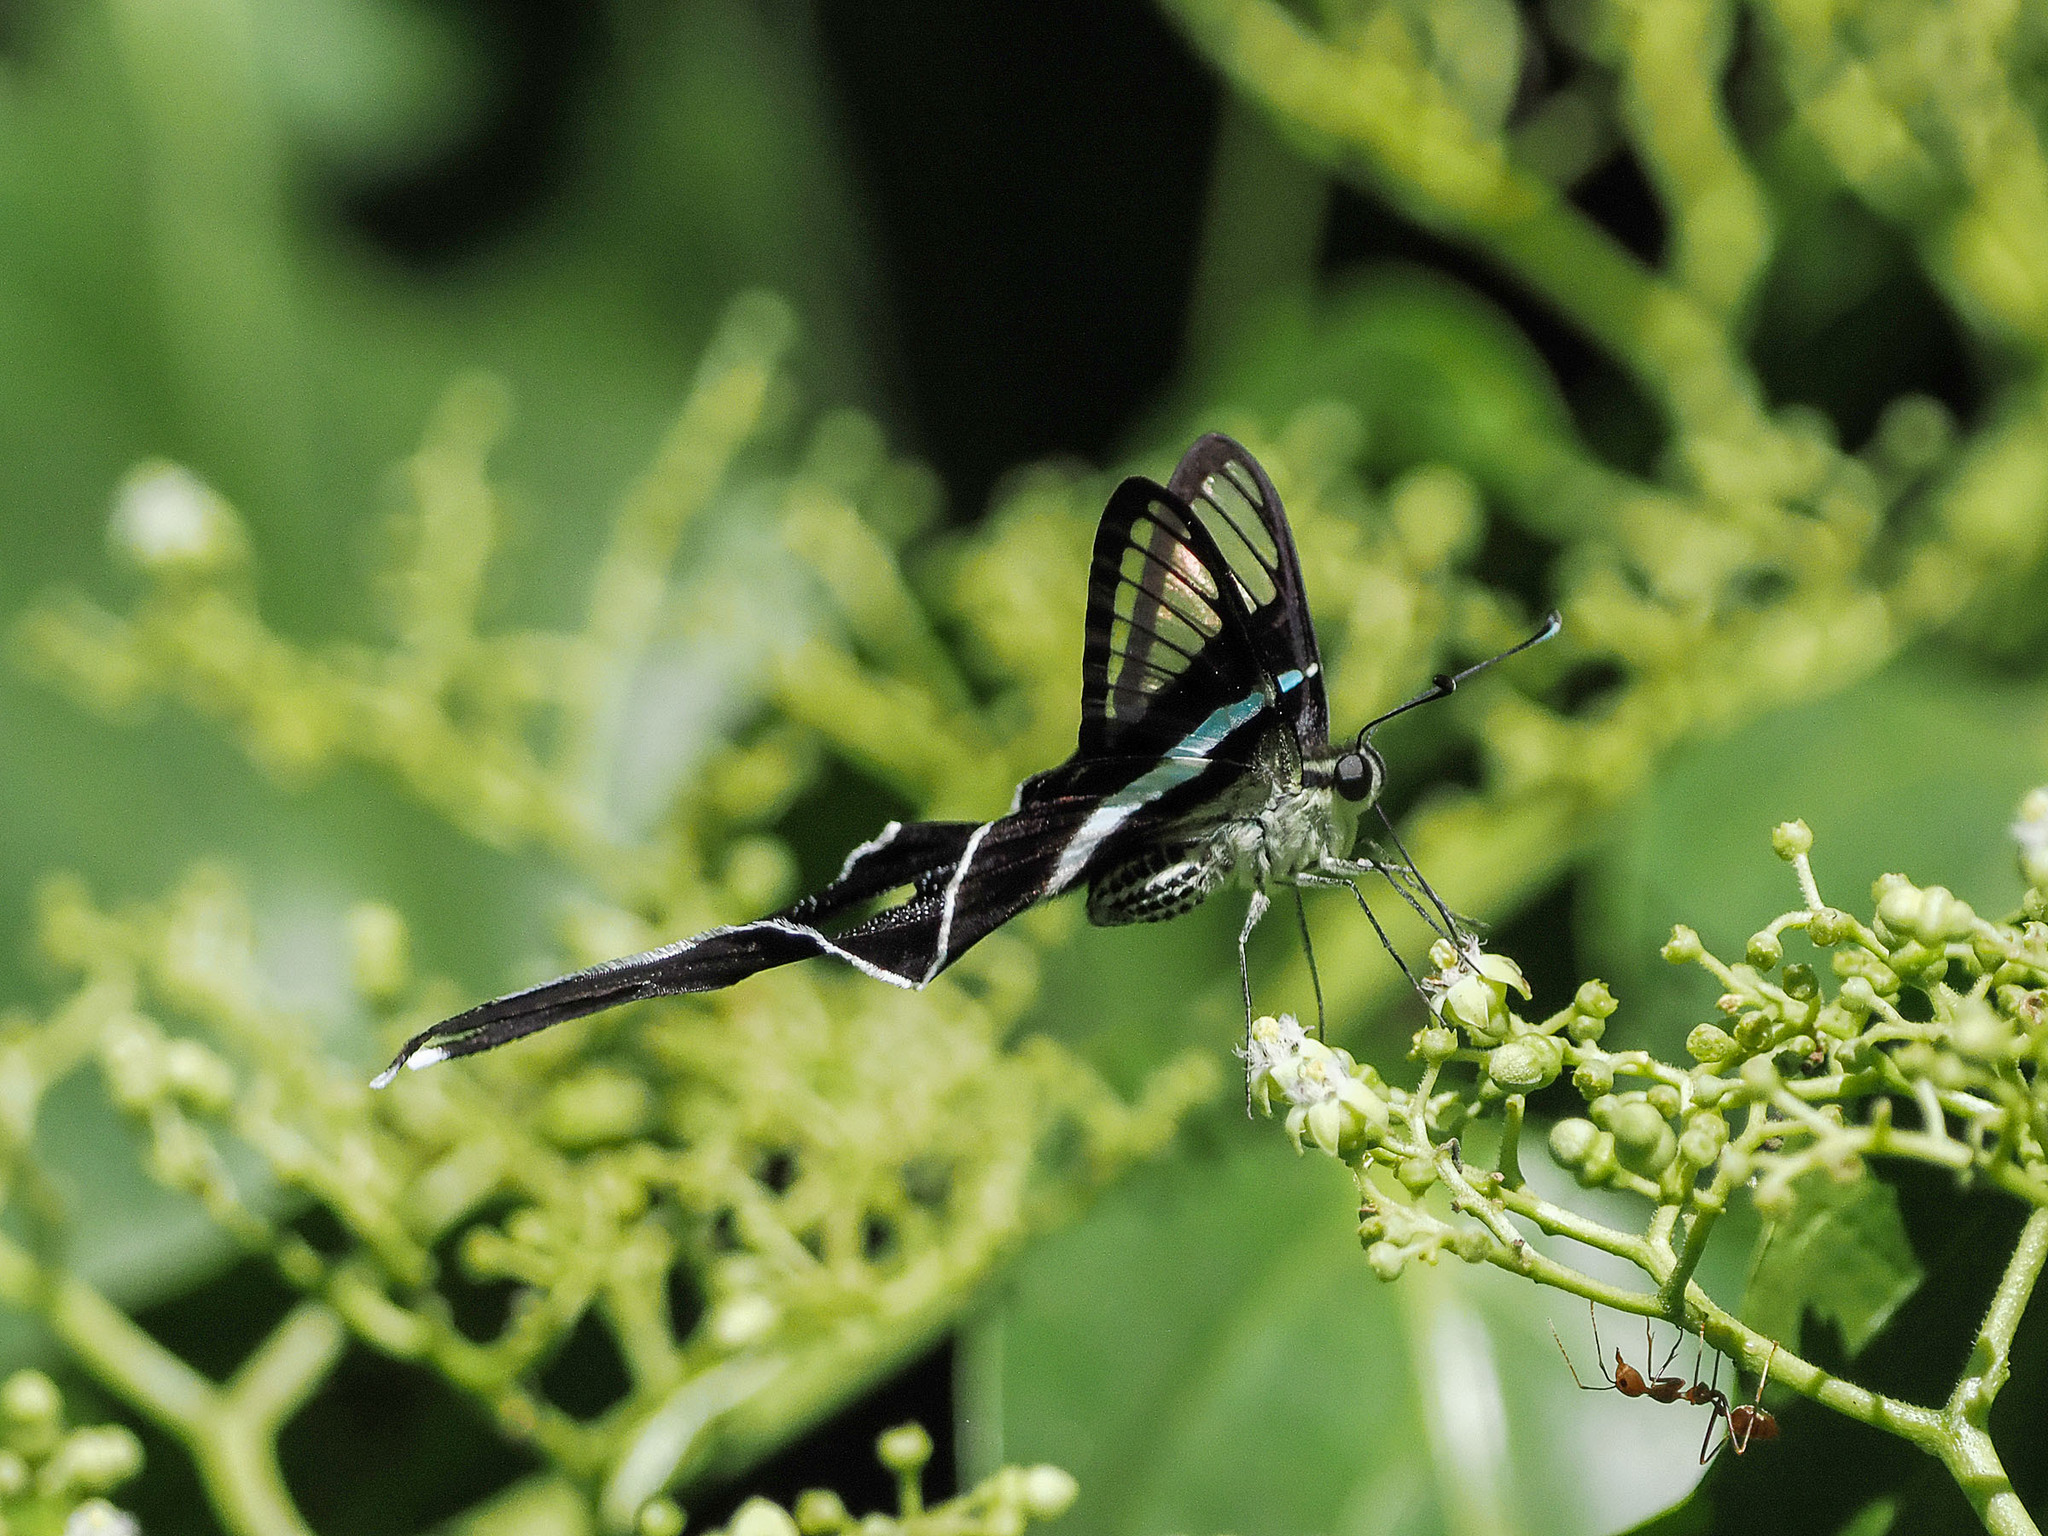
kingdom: Animalia
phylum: Arthropoda
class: Insecta
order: Lepidoptera
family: Papilionidae
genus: Lamproptera
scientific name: Lamproptera meges
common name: Green dragontail
